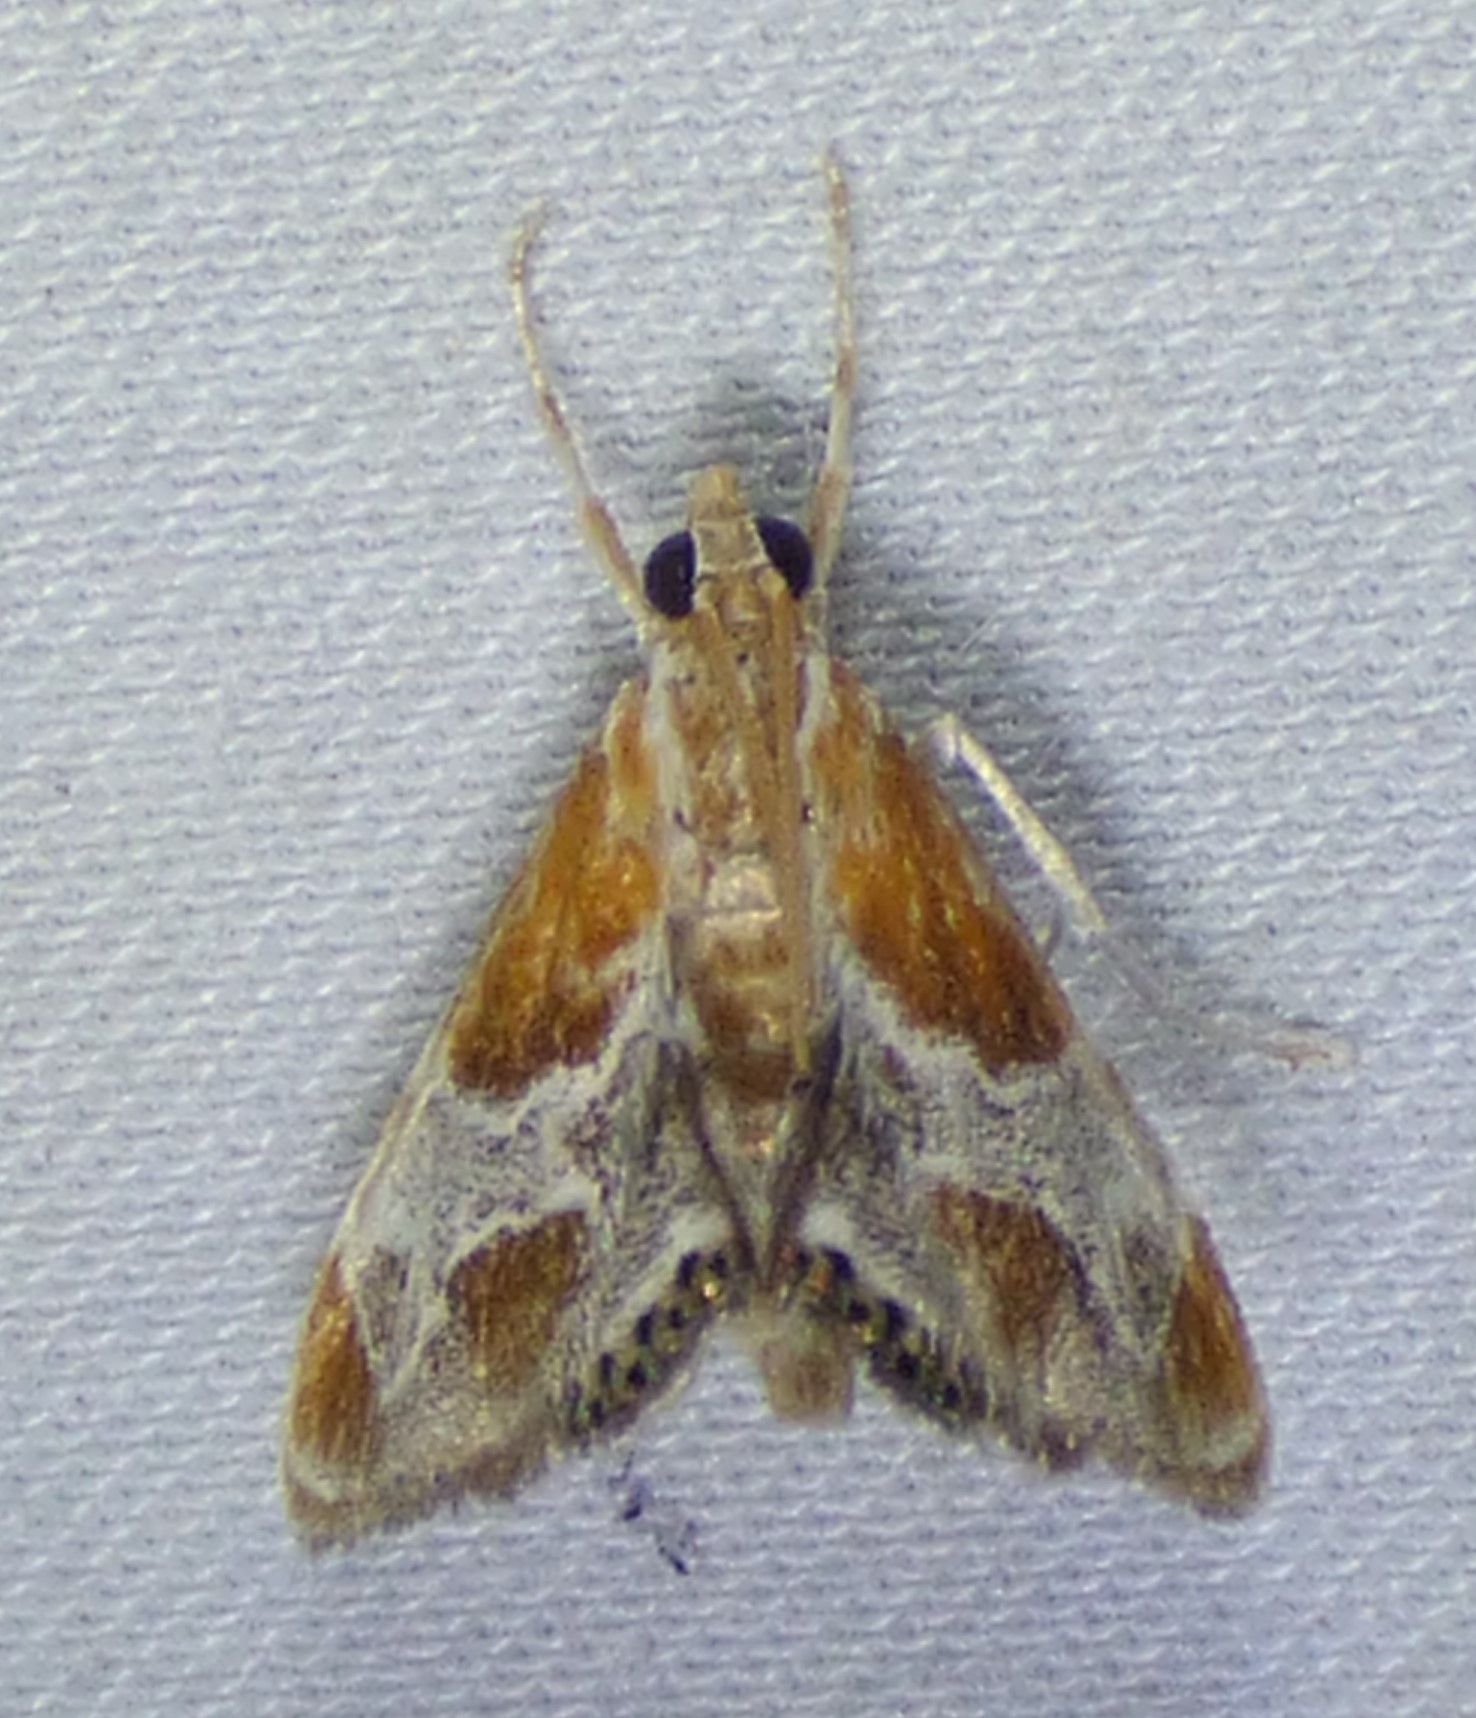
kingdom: Animalia
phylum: Arthropoda
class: Insecta
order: Lepidoptera
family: Crambidae
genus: Chalcoela
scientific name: Chalcoela pegasalis
